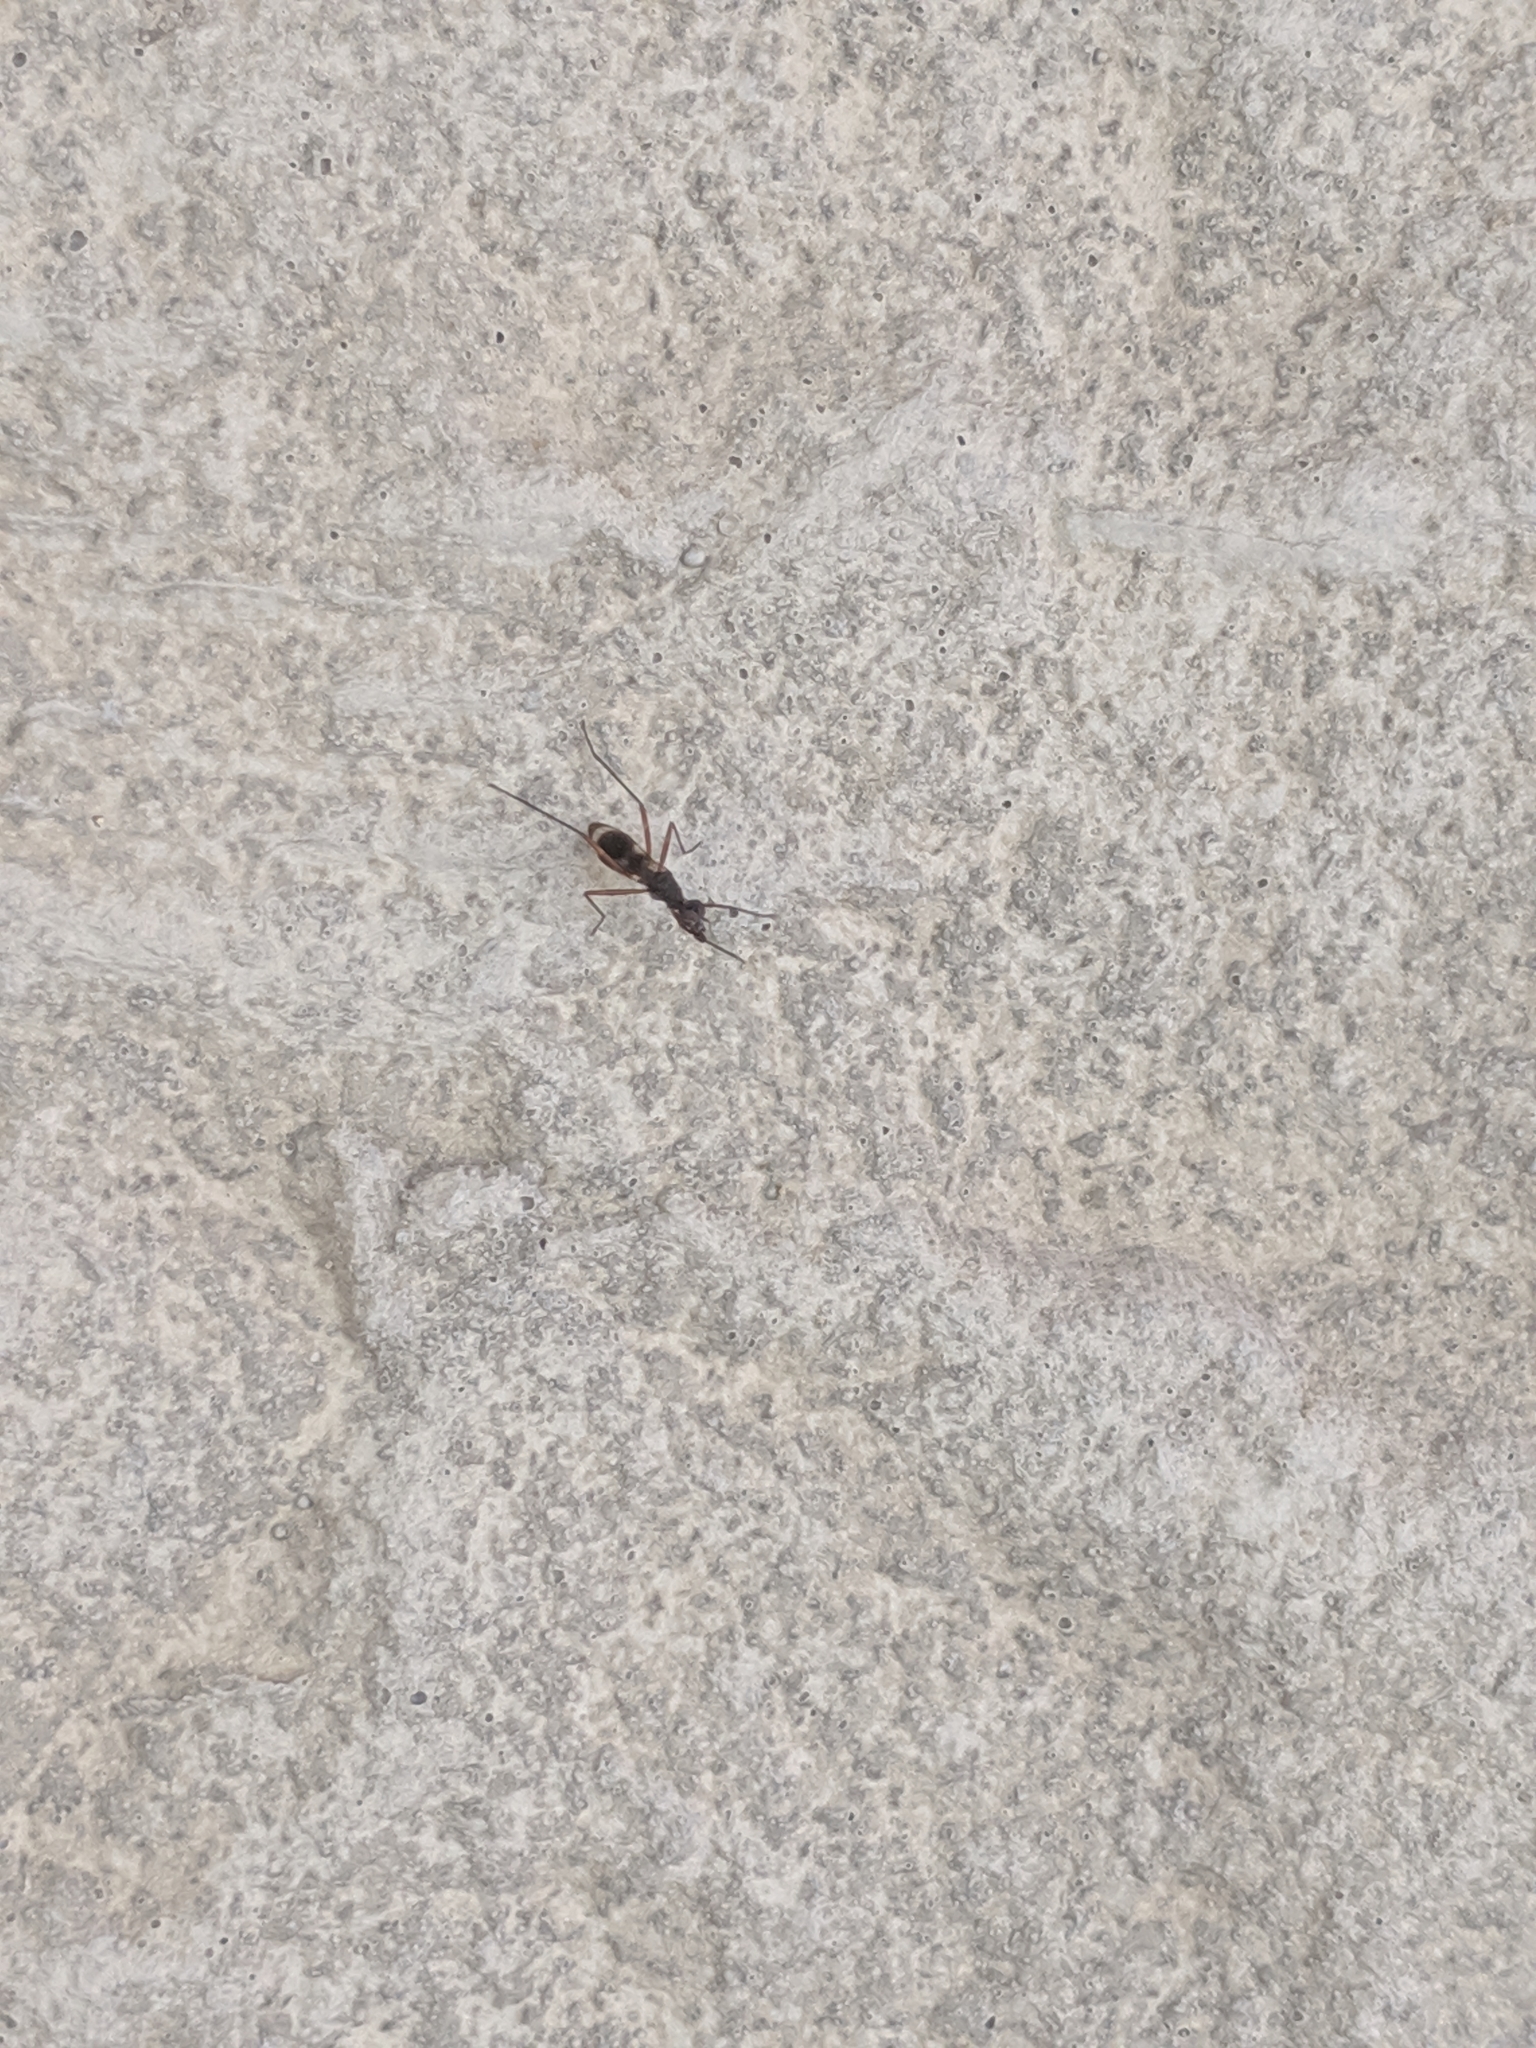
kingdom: Animalia
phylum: Arthropoda
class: Insecta
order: Diptera
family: Micropezidae
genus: Taeniaptera
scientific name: Taeniaptera trivittata
